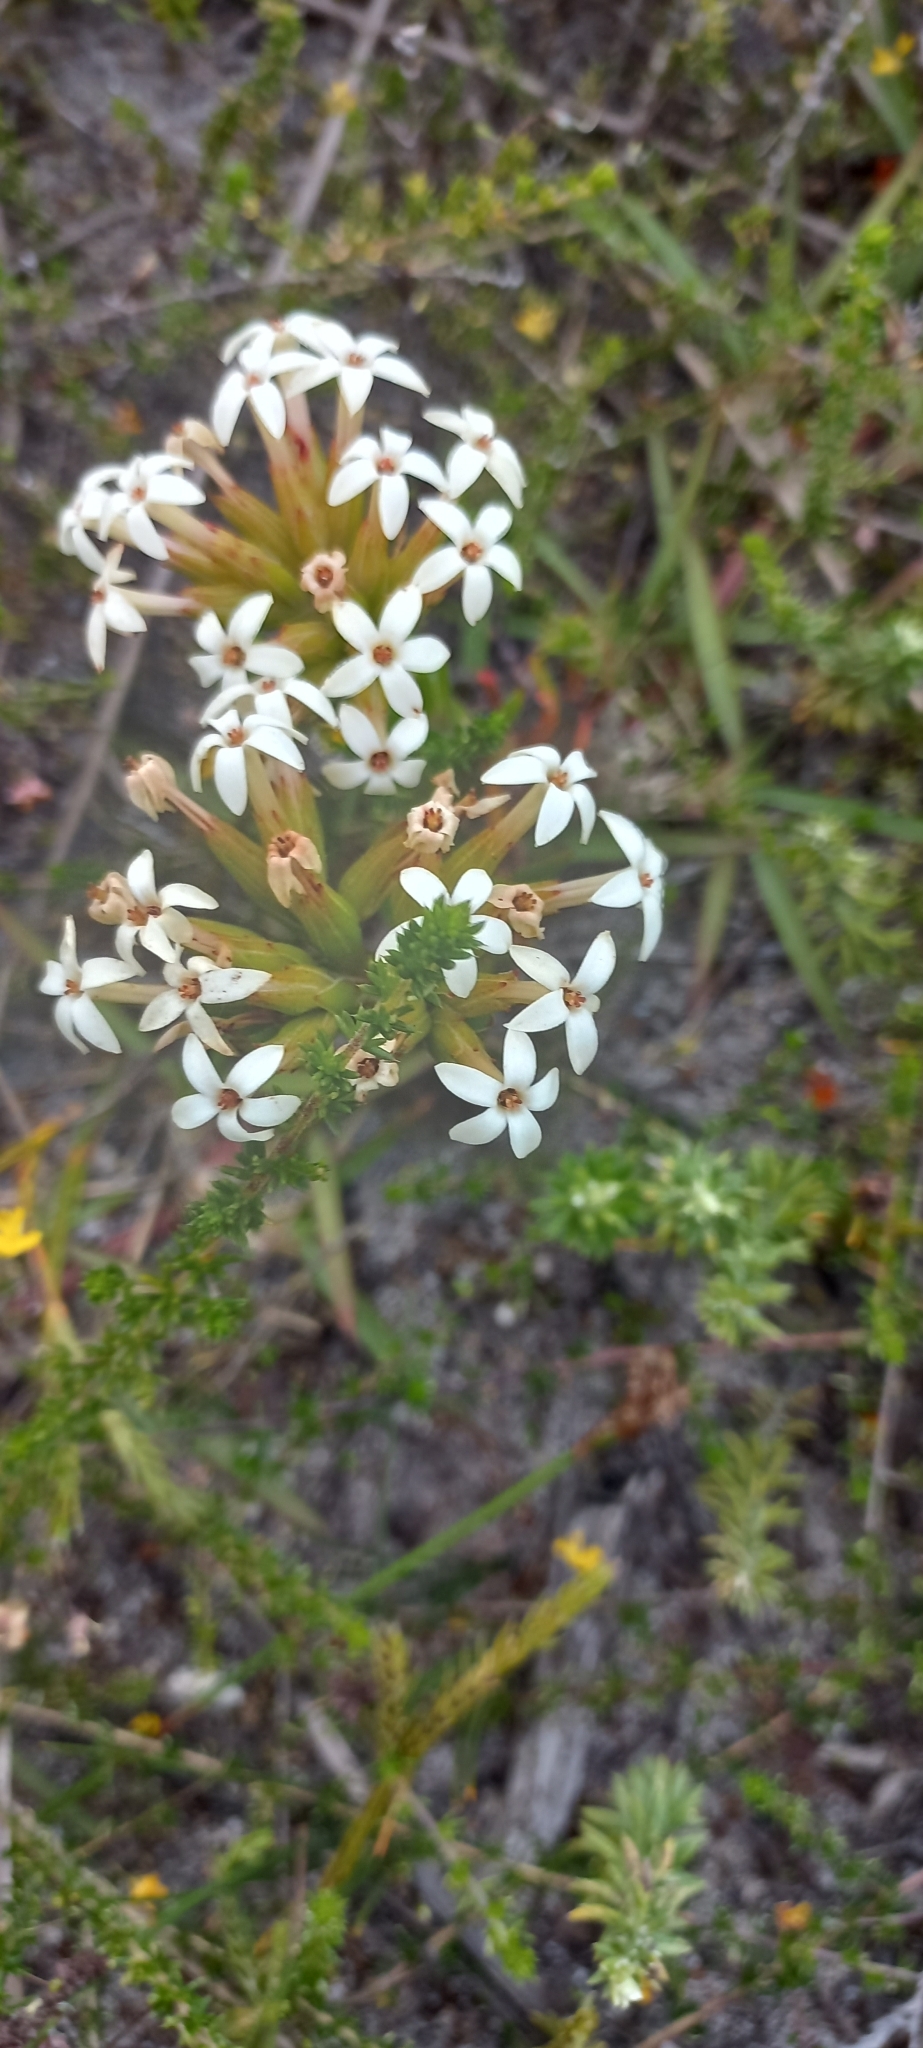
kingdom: Plantae
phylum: Tracheophyta
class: Magnoliopsida
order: Saxifragales
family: Crassulaceae
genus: Crassula
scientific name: Crassula fascicularis
